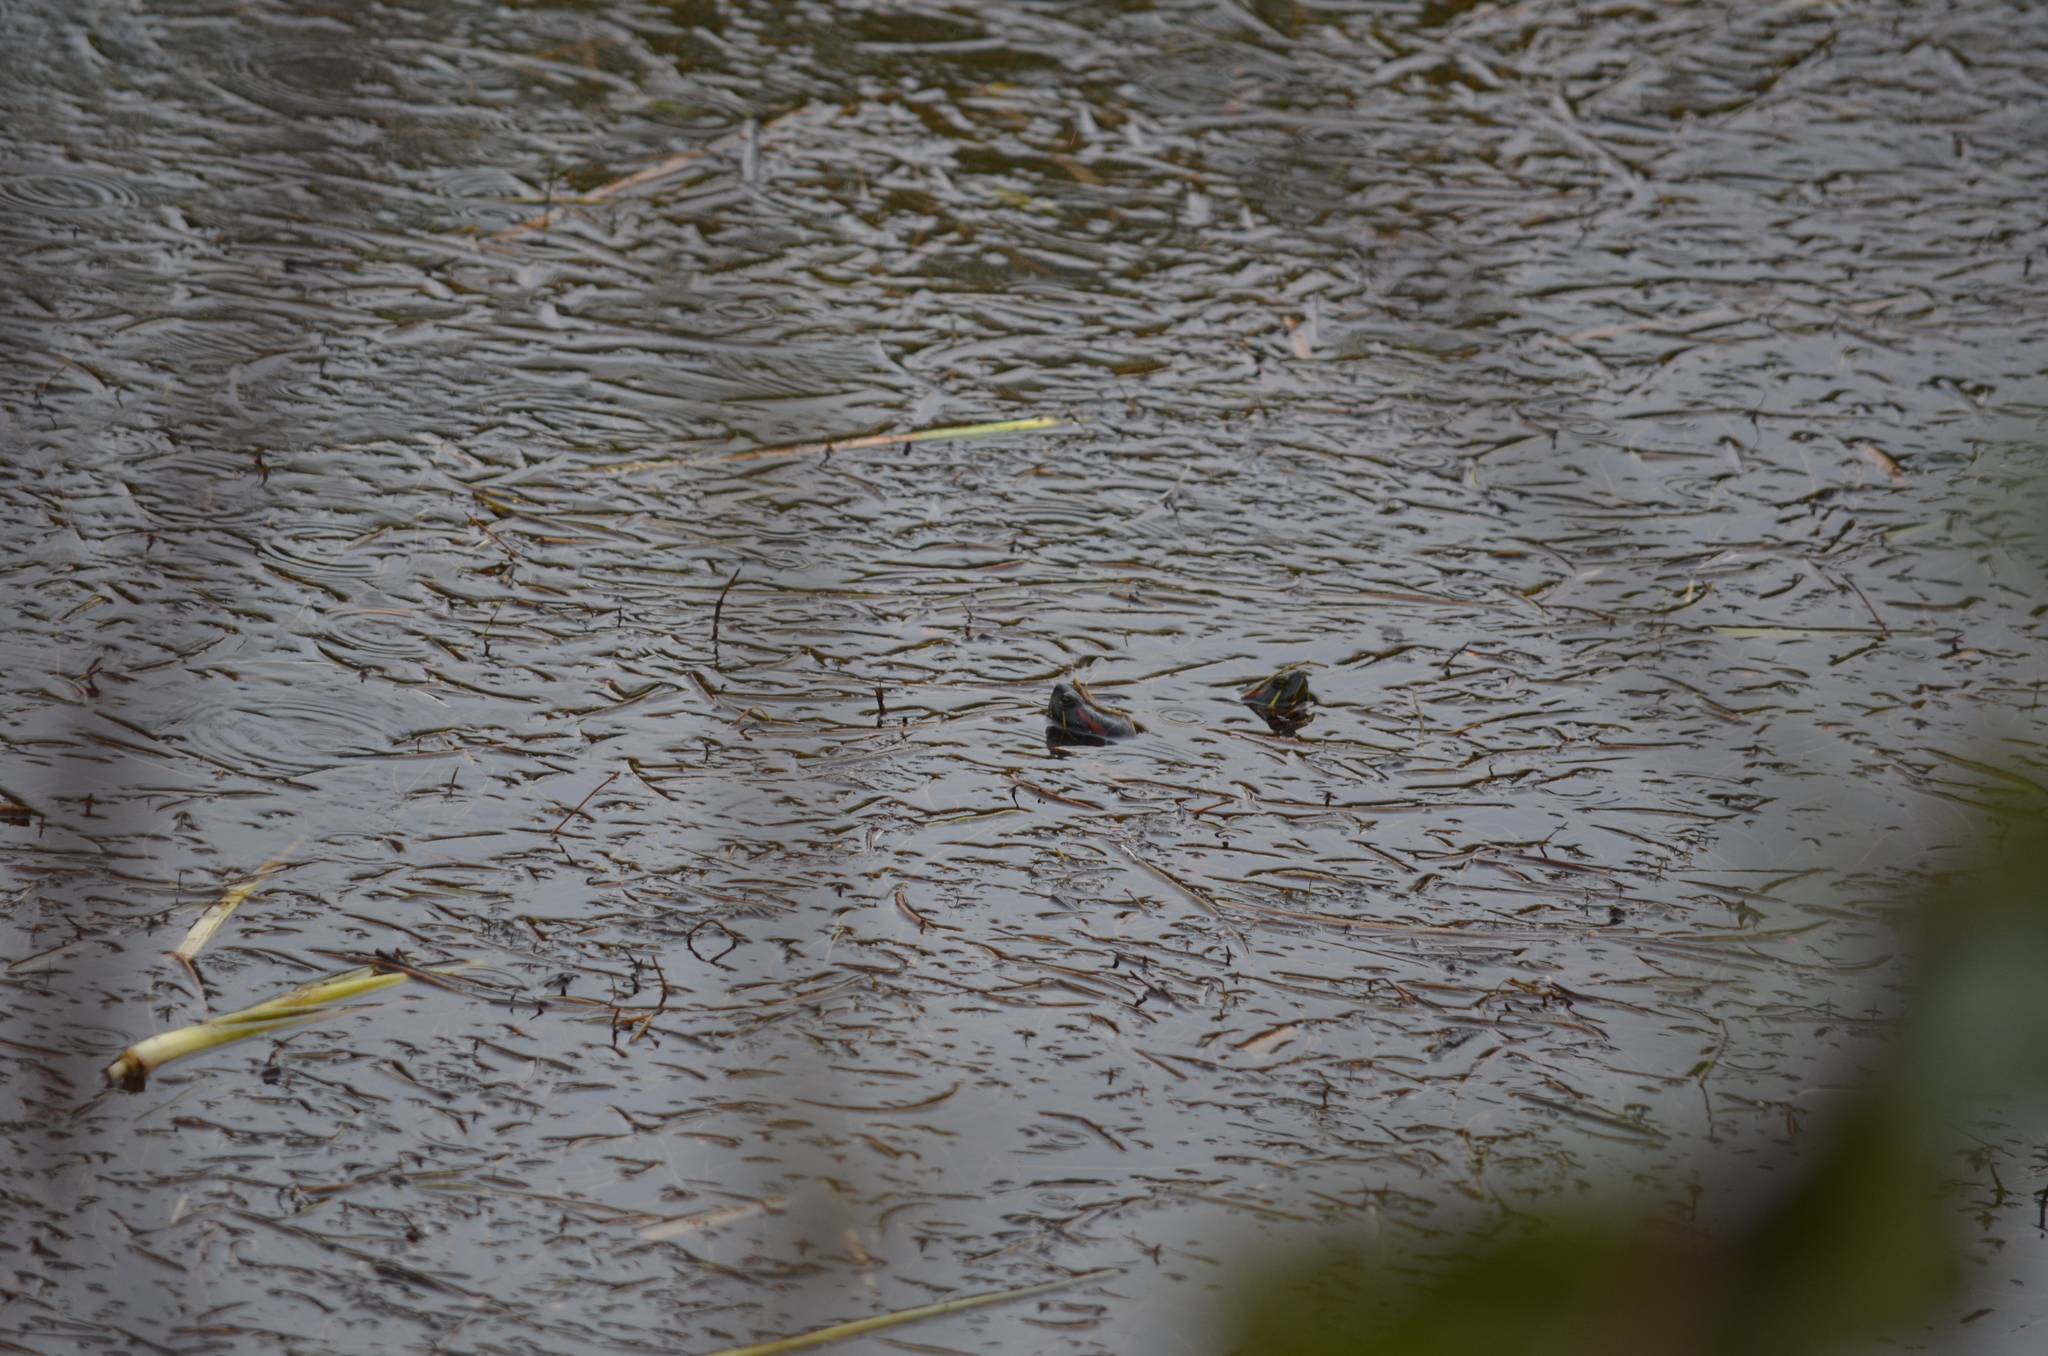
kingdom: Animalia
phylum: Chordata
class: Testudines
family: Emydidae
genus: Trachemys
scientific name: Trachemys scripta
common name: Slider
